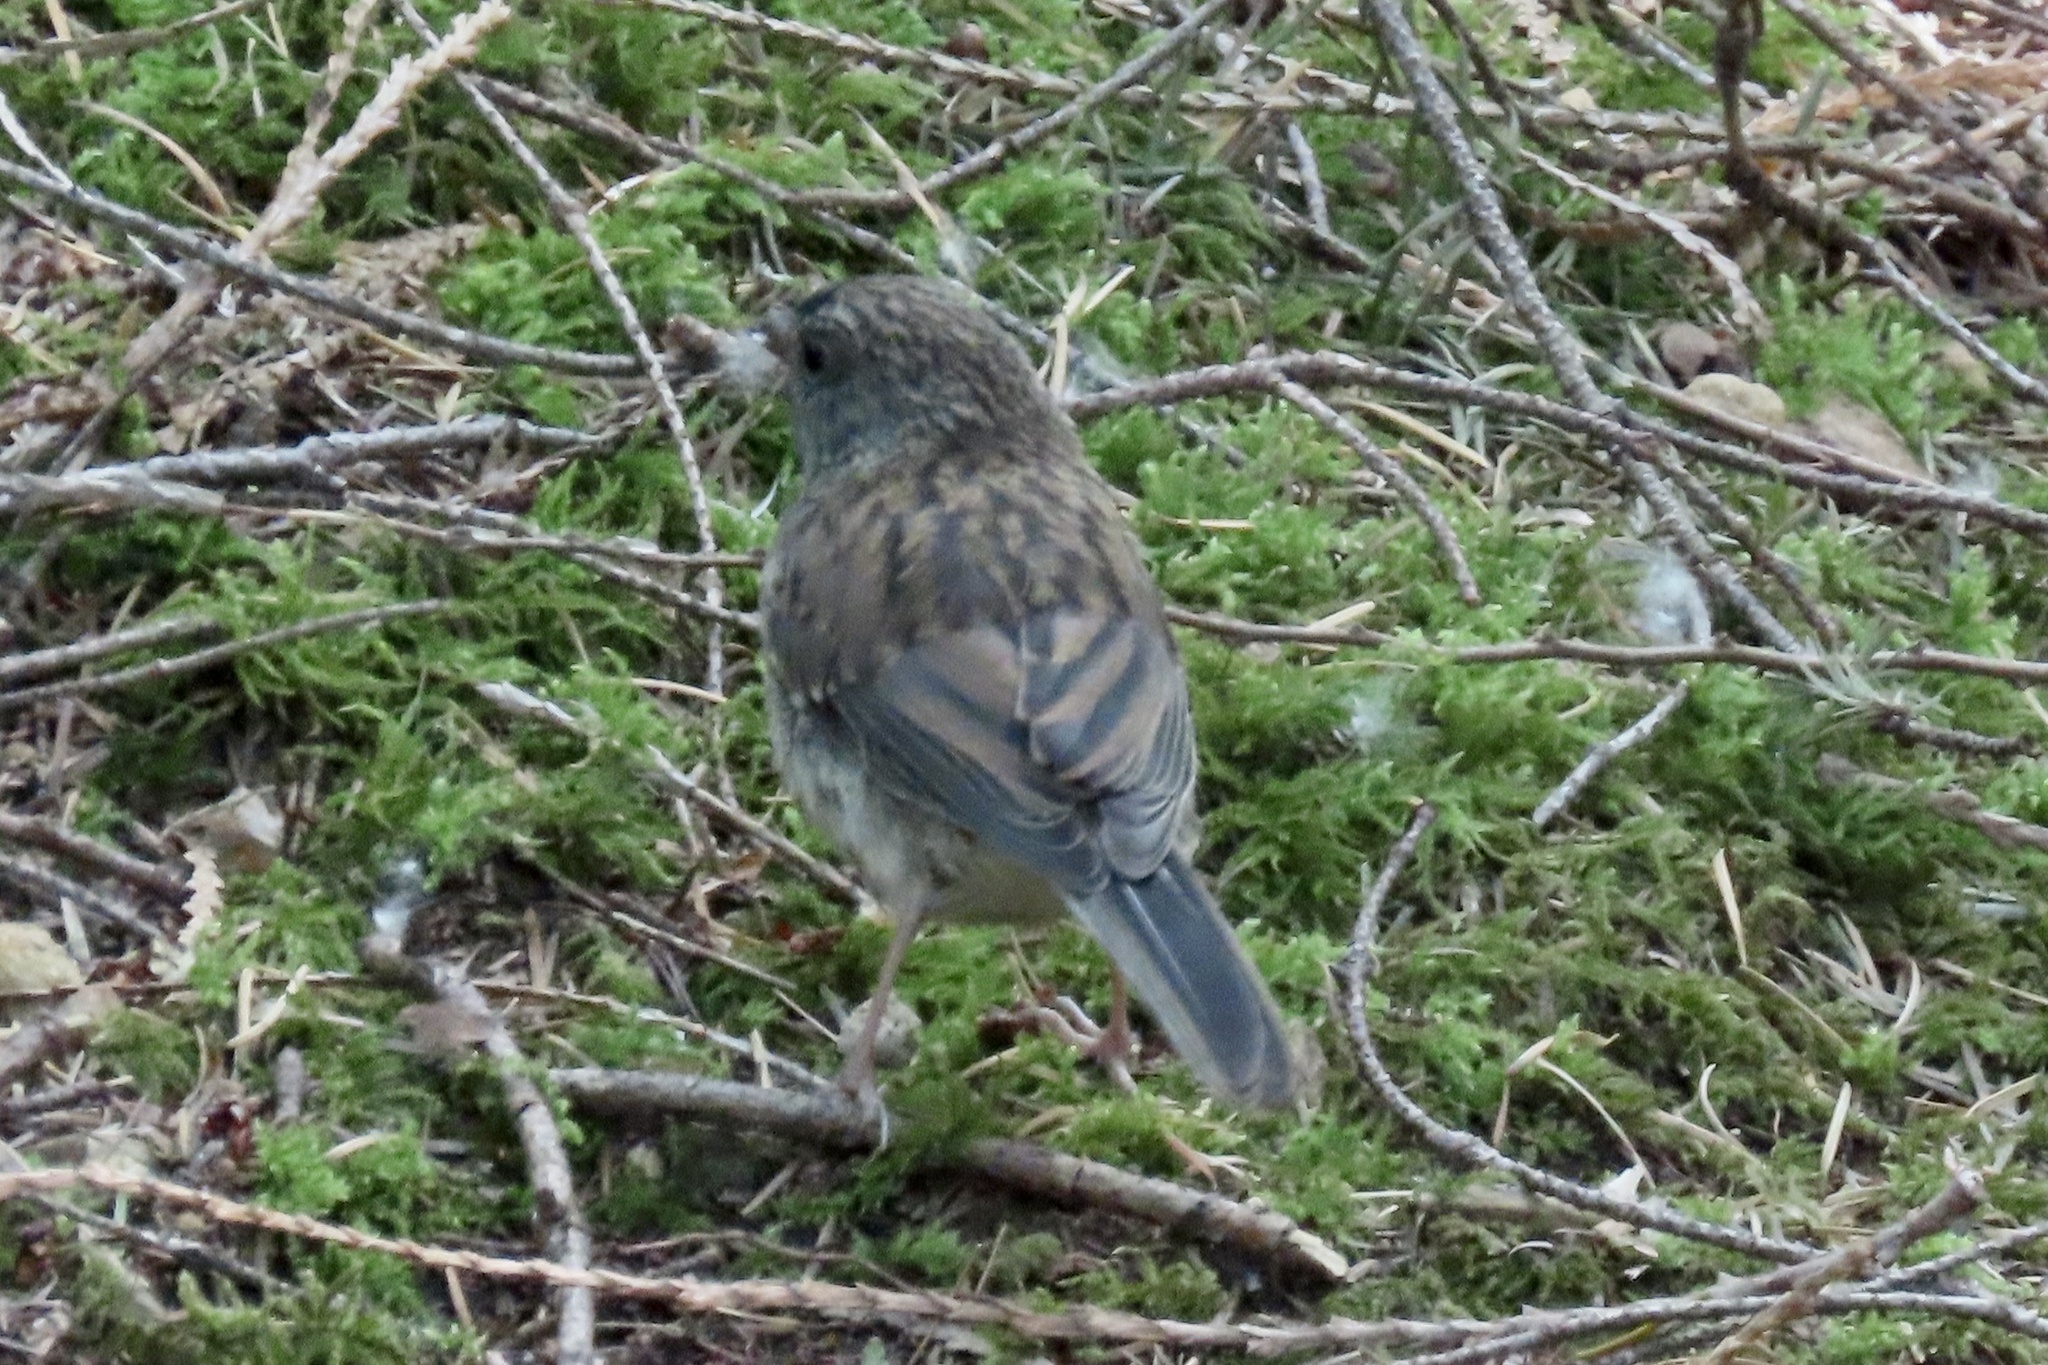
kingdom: Animalia
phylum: Chordata
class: Aves
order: Passeriformes
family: Passerellidae
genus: Junco
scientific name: Junco hyemalis
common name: Dark-eyed junco
